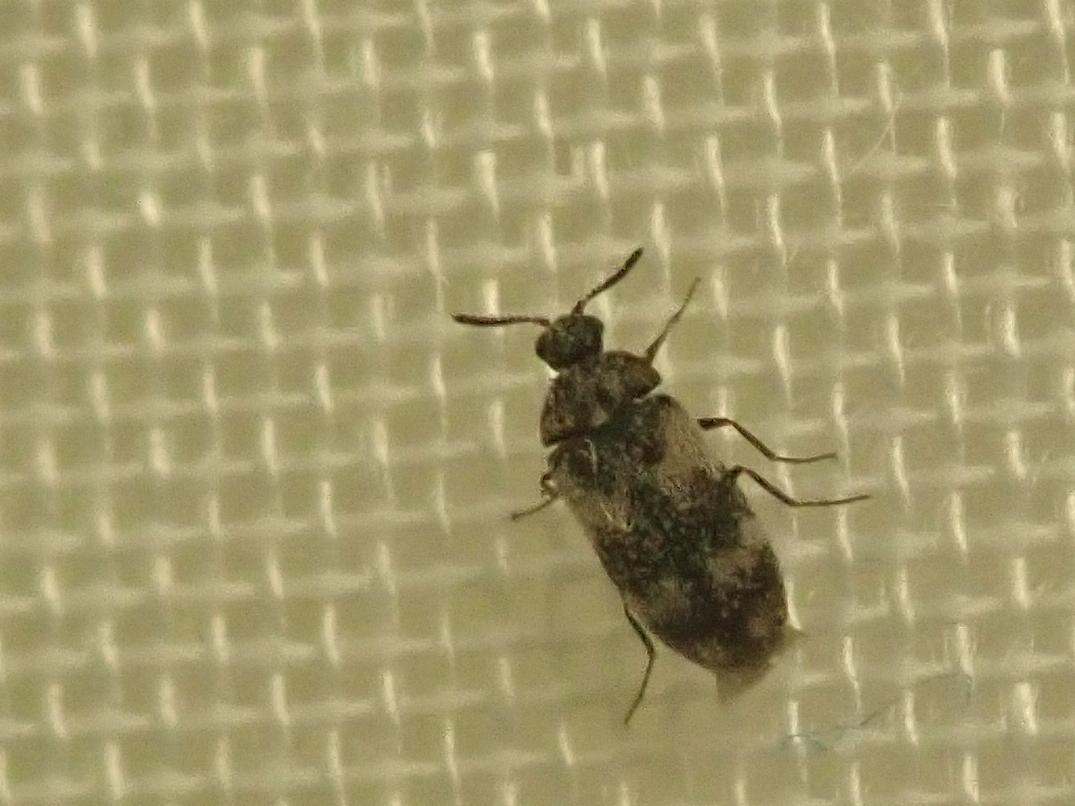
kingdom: Animalia
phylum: Arthropoda
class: Insecta
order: Coleoptera
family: Dermestidae
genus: Trogoderma
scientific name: Trogoderma angustum
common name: Skin beetle
